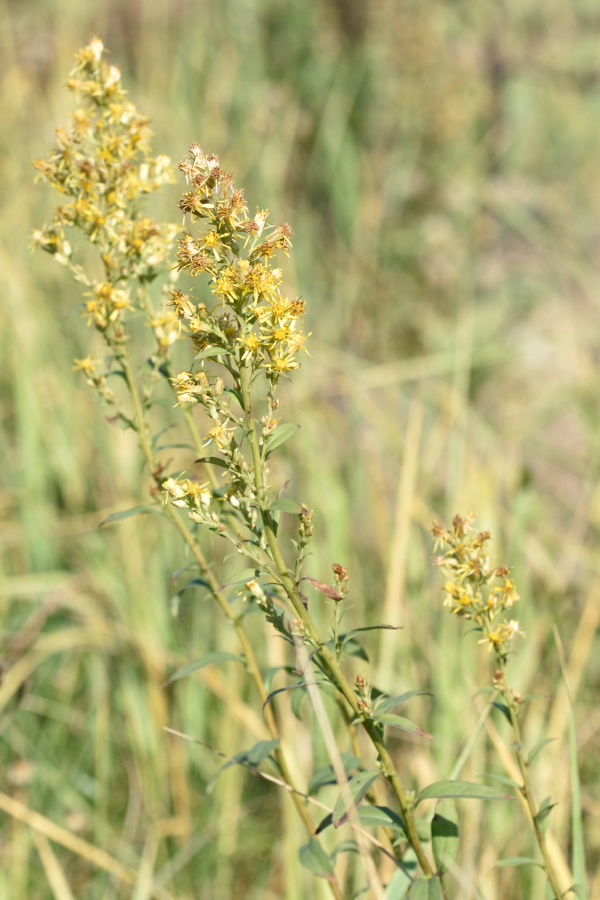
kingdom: Plantae
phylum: Tracheophyta
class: Magnoliopsida
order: Asterales
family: Asteraceae
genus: Solidago
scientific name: Solidago virgaurea
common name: Goldenrod
